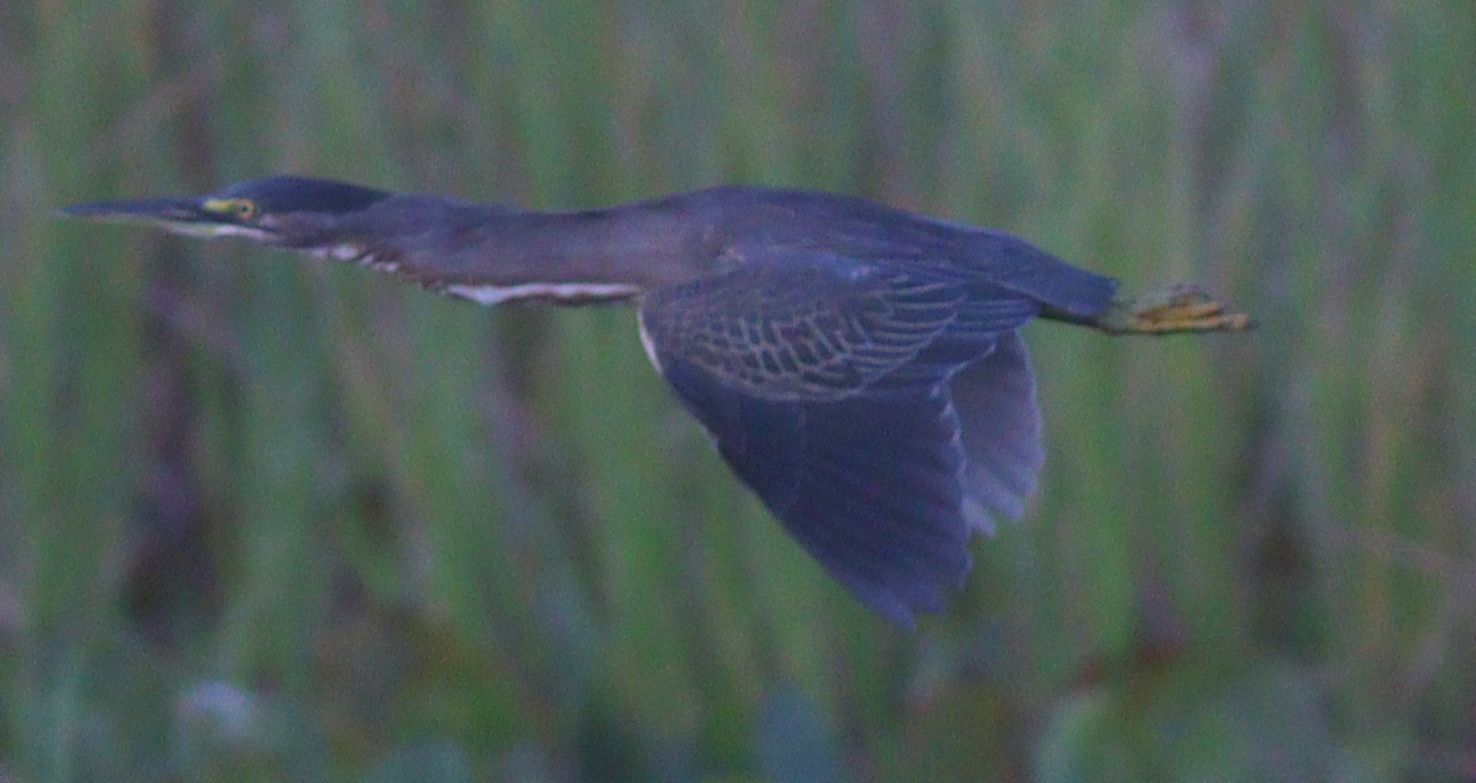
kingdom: Animalia
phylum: Chordata
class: Aves
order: Pelecaniformes
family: Ardeidae
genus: Butorides
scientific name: Butorides striata
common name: Striated heron
